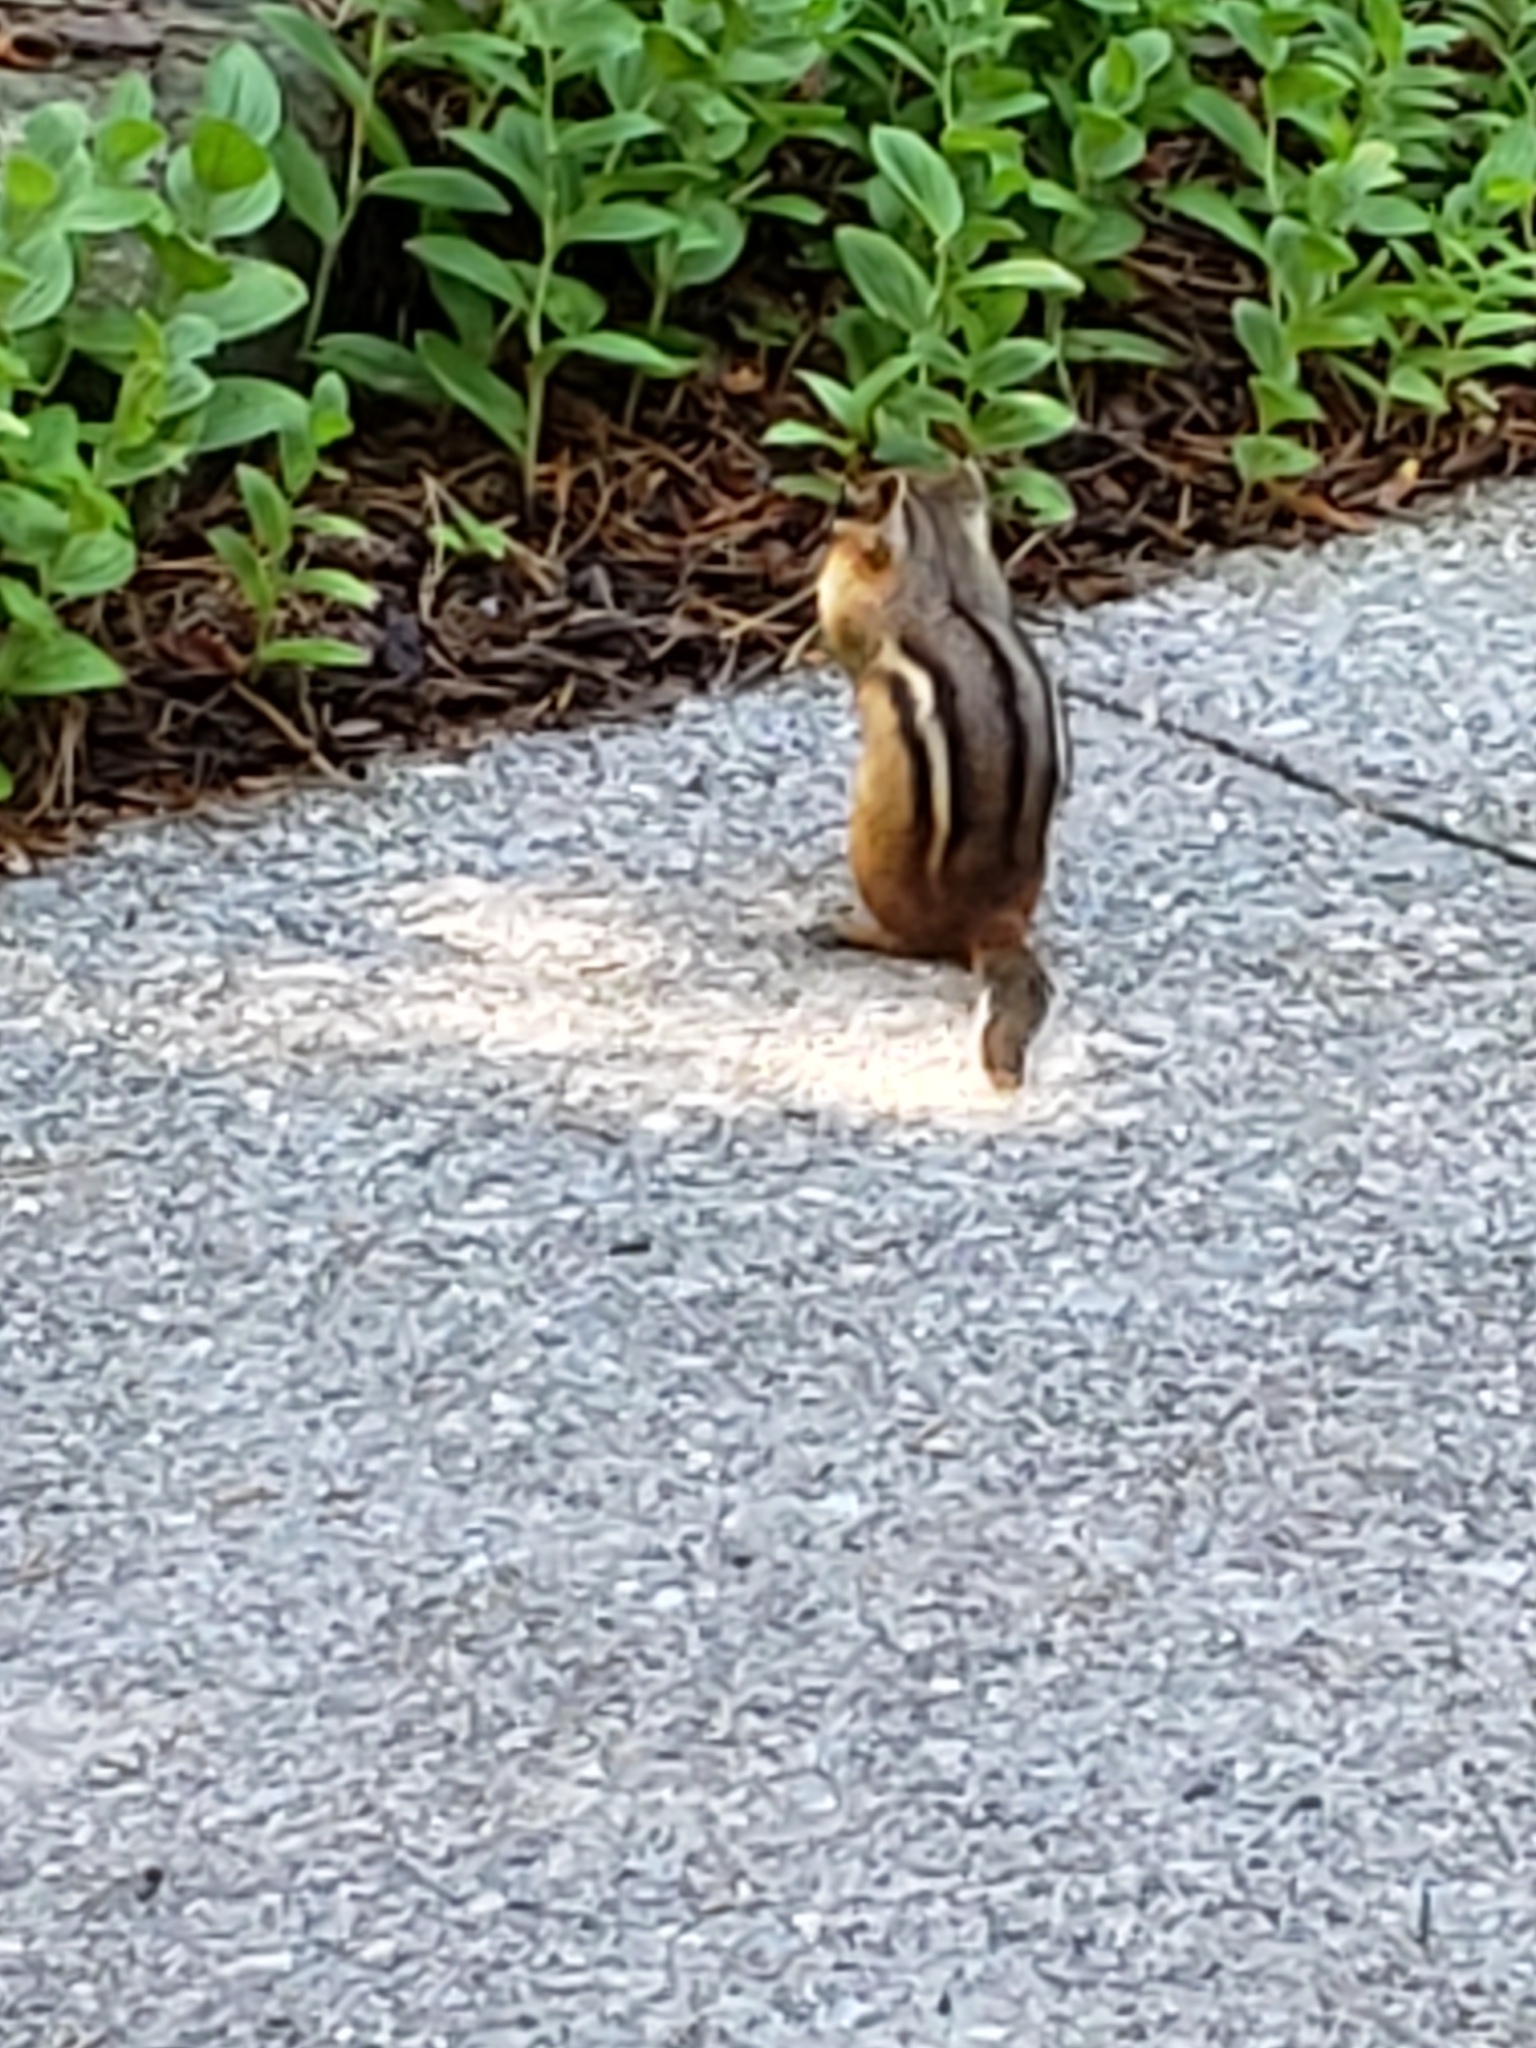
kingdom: Animalia
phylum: Chordata
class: Mammalia
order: Rodentia
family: Sciuridae
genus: Tamias
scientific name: Tamias striatus
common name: Eastern chipmunk
